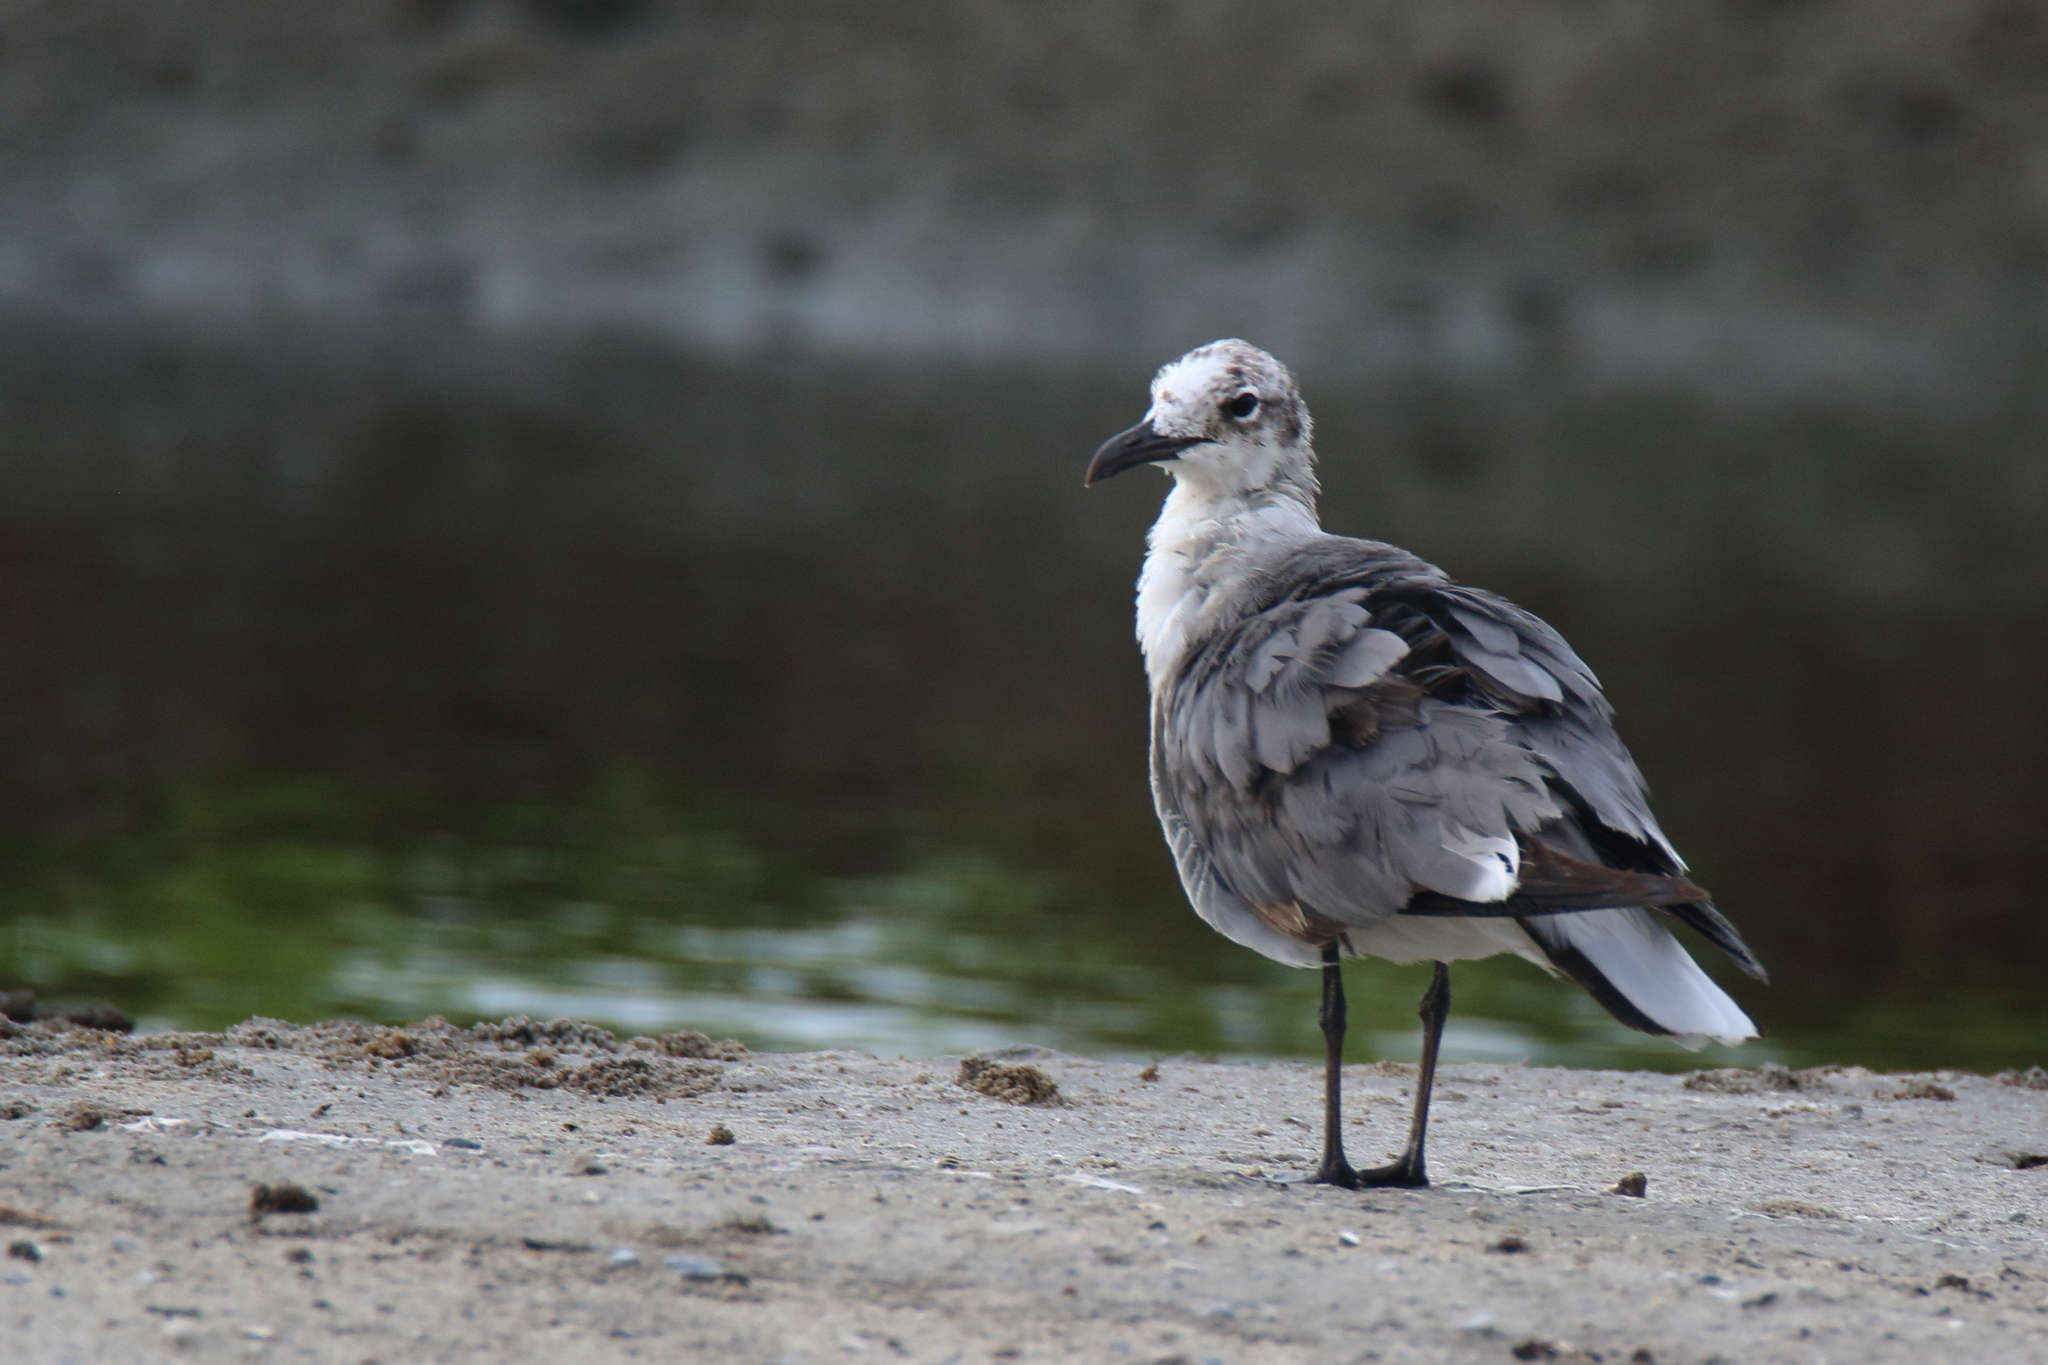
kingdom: Animalia
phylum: Chordata
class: Aves
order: Charadriiformes
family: Laridae
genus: Leucophaeus
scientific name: Leucophaeus atricilla
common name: Laughing gull
